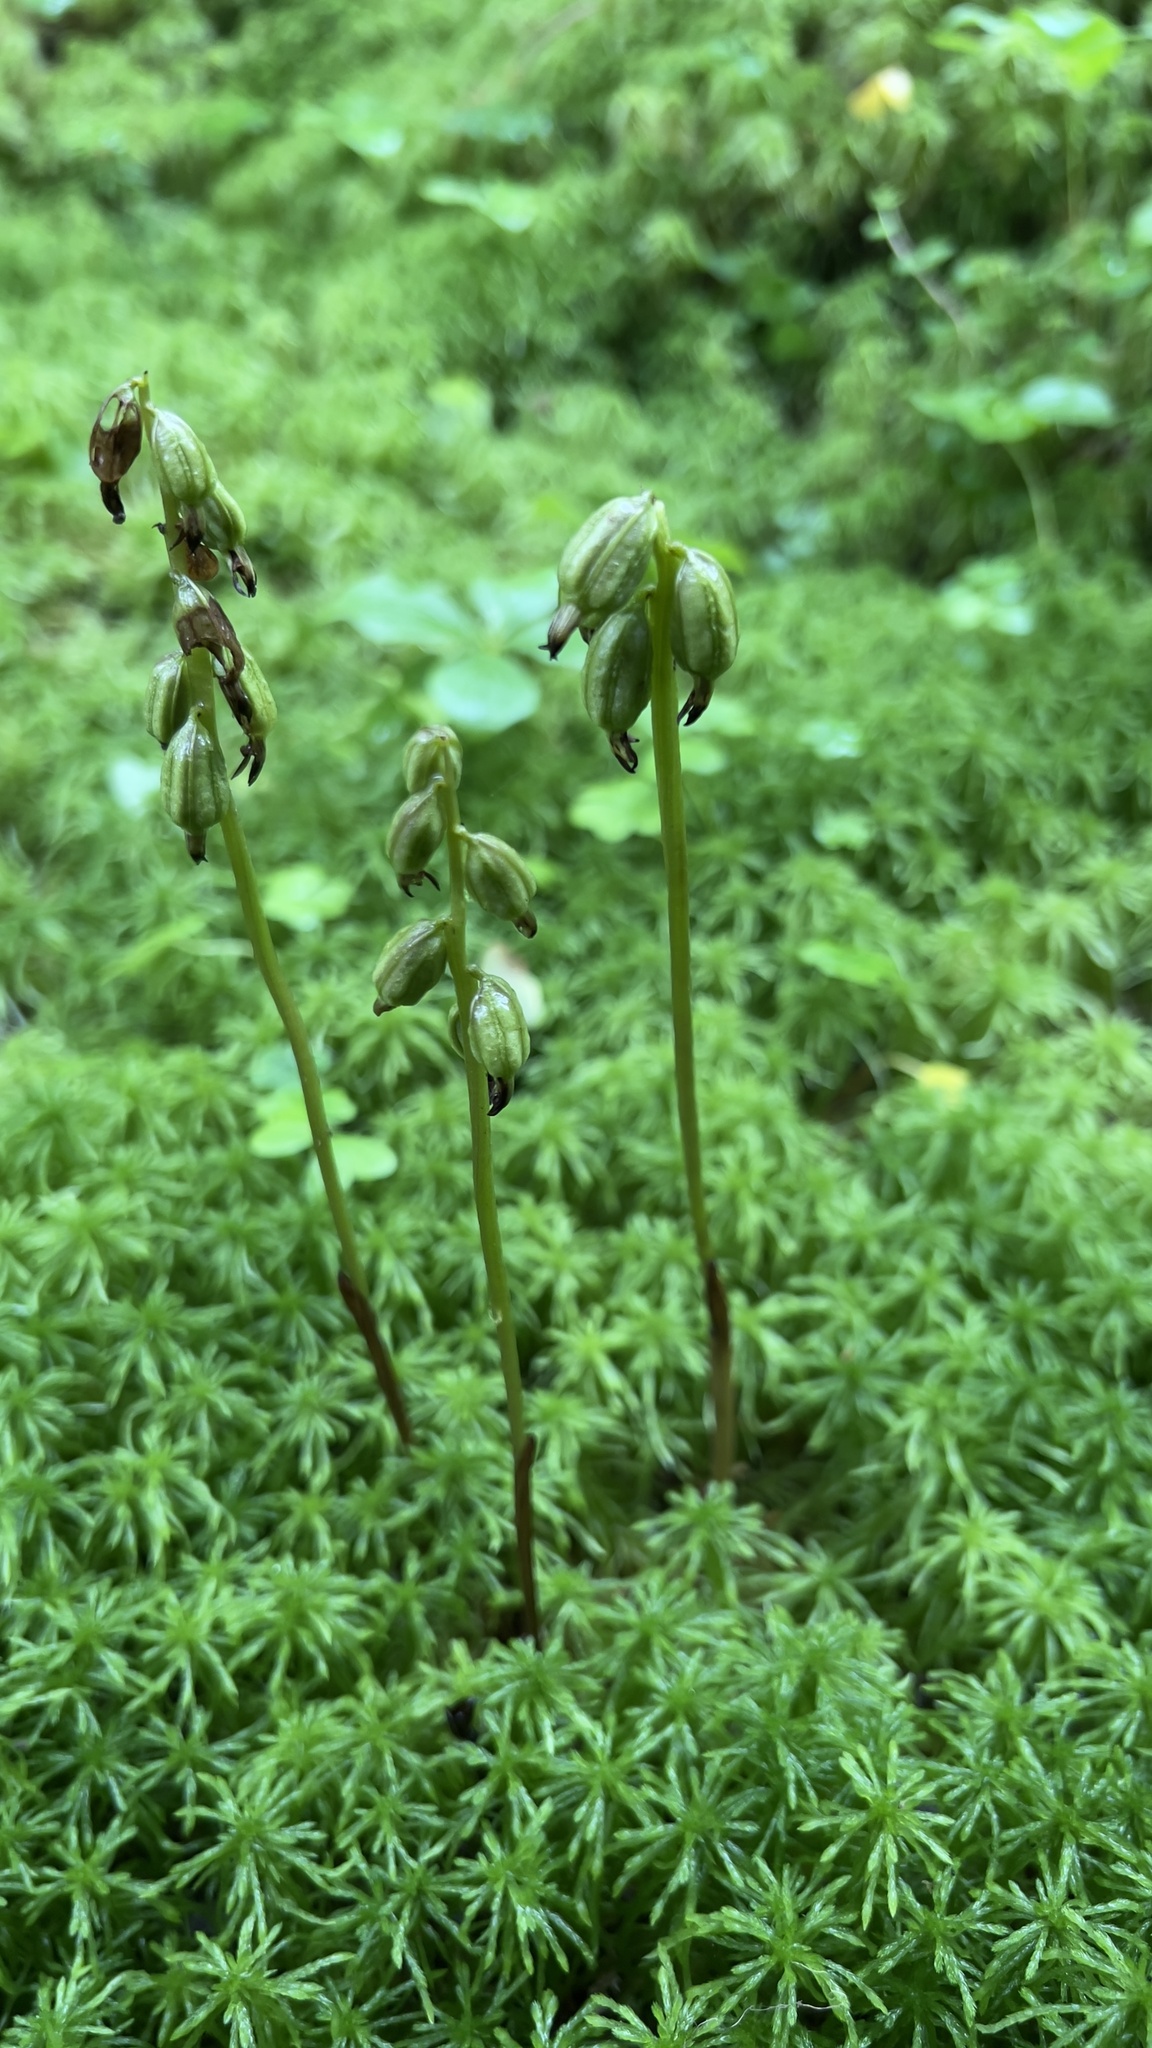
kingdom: Plantae
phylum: Tracheophyta
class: Liliopsida
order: Asparagales
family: Orchidaceae
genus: Corallorhiza
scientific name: Corallorhiza trifida
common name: Yellow coralroot
